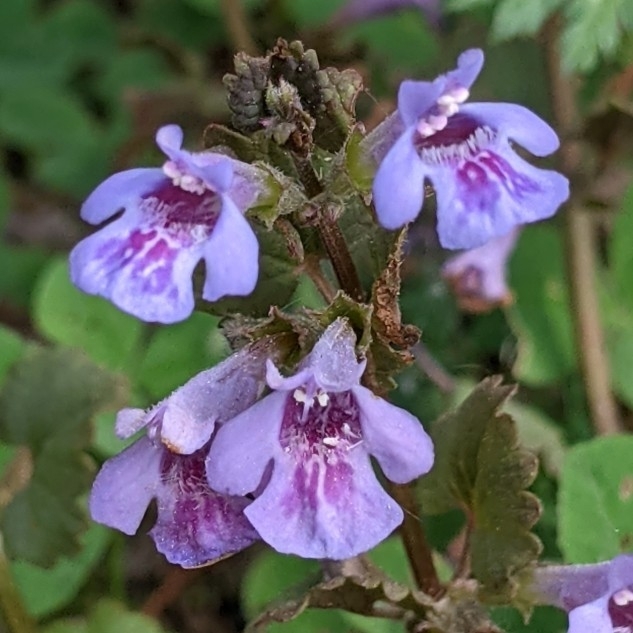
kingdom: Plantae
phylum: Tracheophyta
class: Magnoliopsida
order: Lamiales
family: Lamiaceae
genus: Glechoma
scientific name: Glechoma hederacea
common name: Ground ivy
